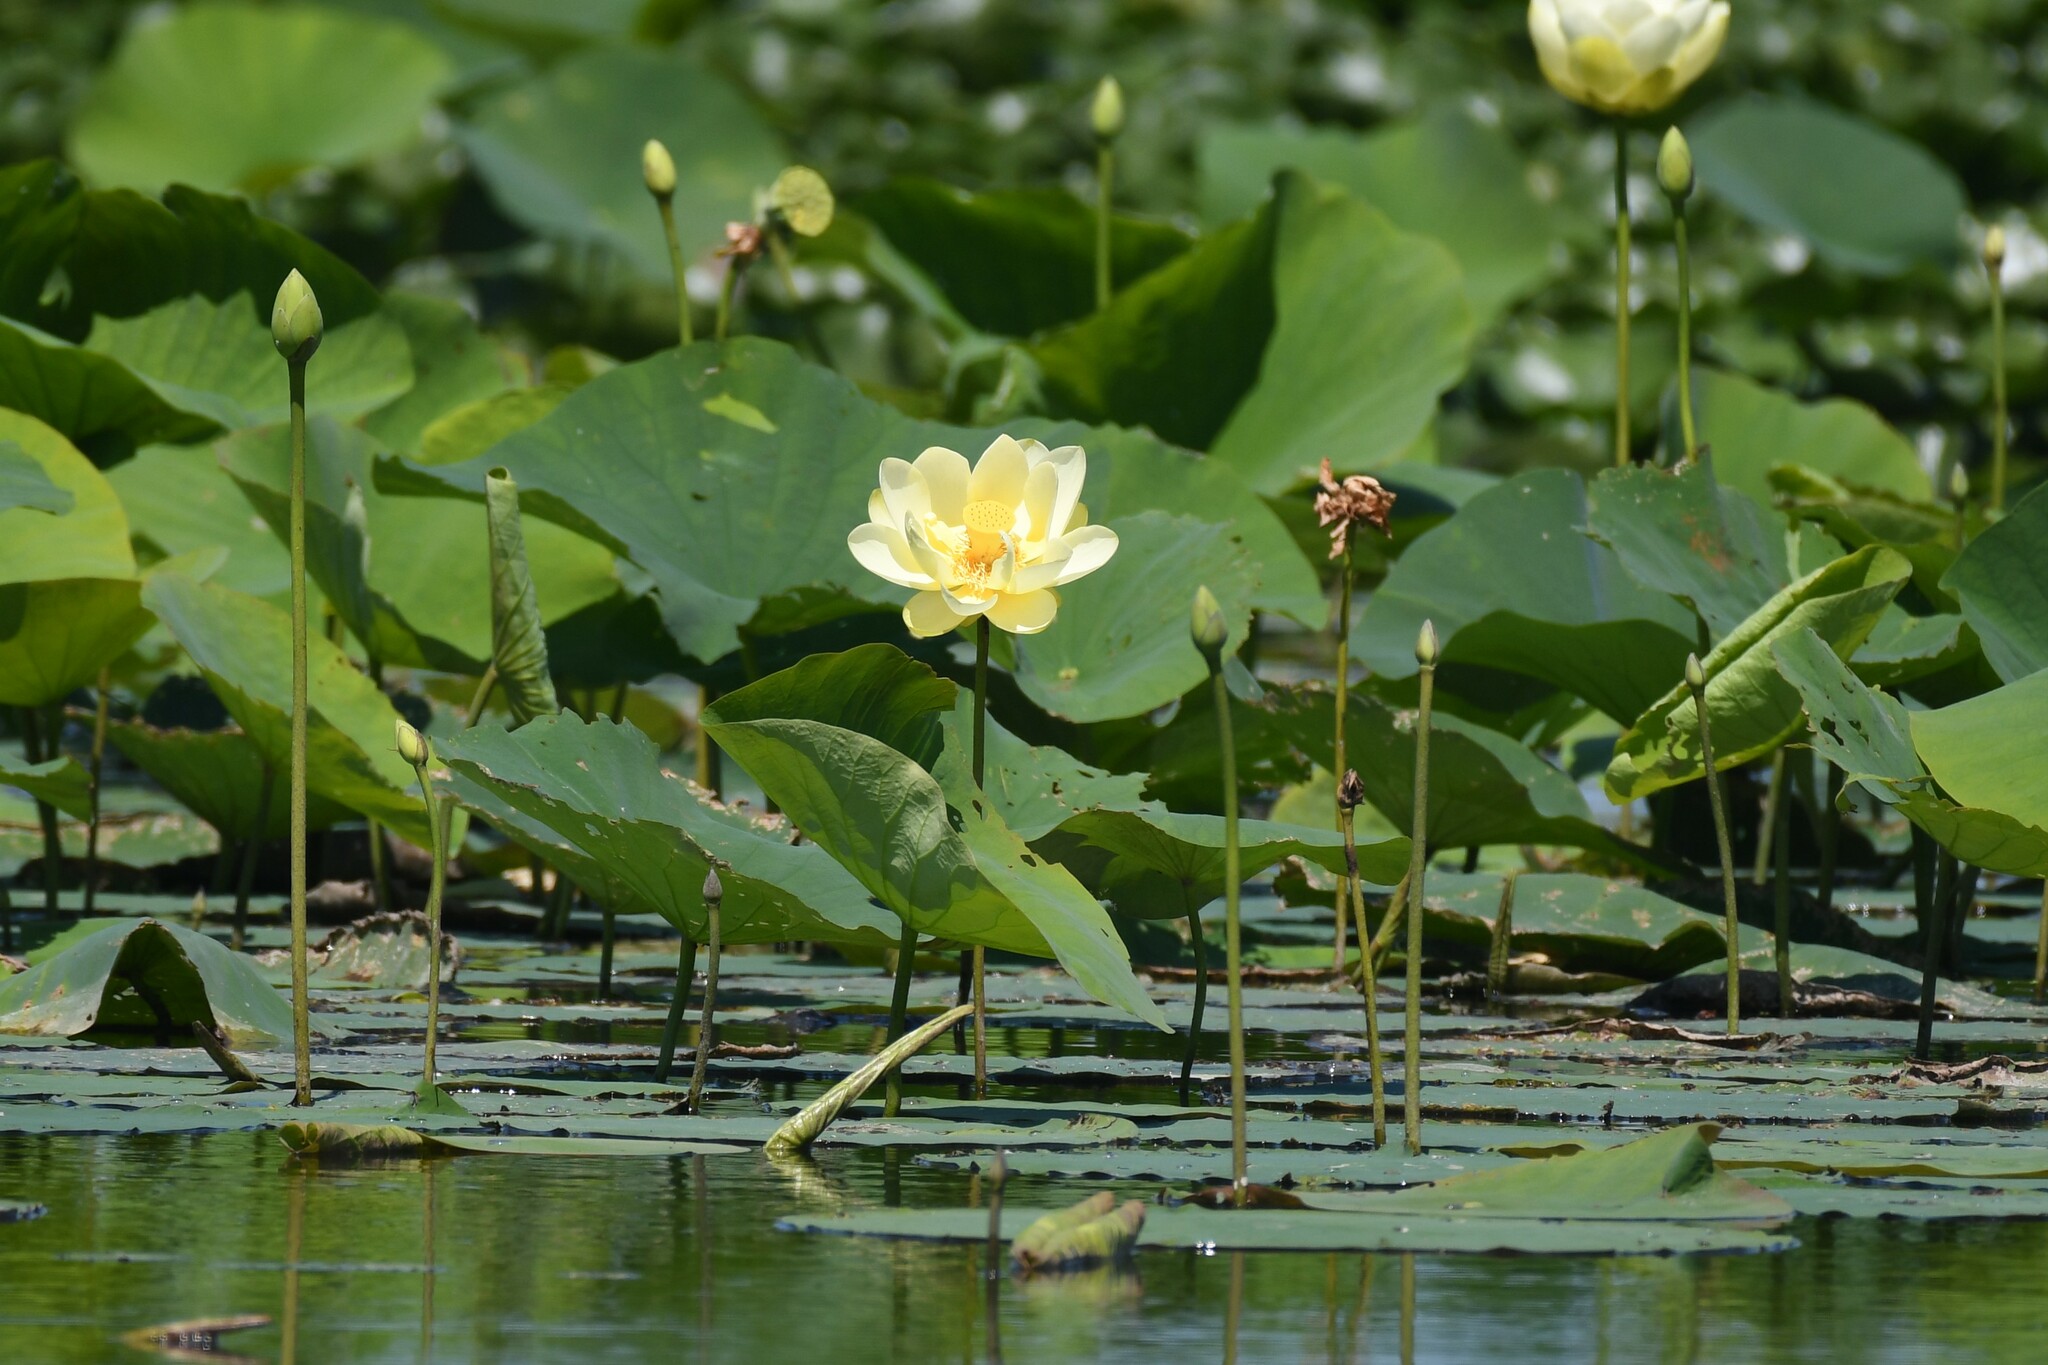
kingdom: Plantae
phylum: Tracheophyta
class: Magnoliopsida
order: Proteales
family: Nelumbonaceae
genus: Nelumbo
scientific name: Nelumbo lutea
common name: American lotus
